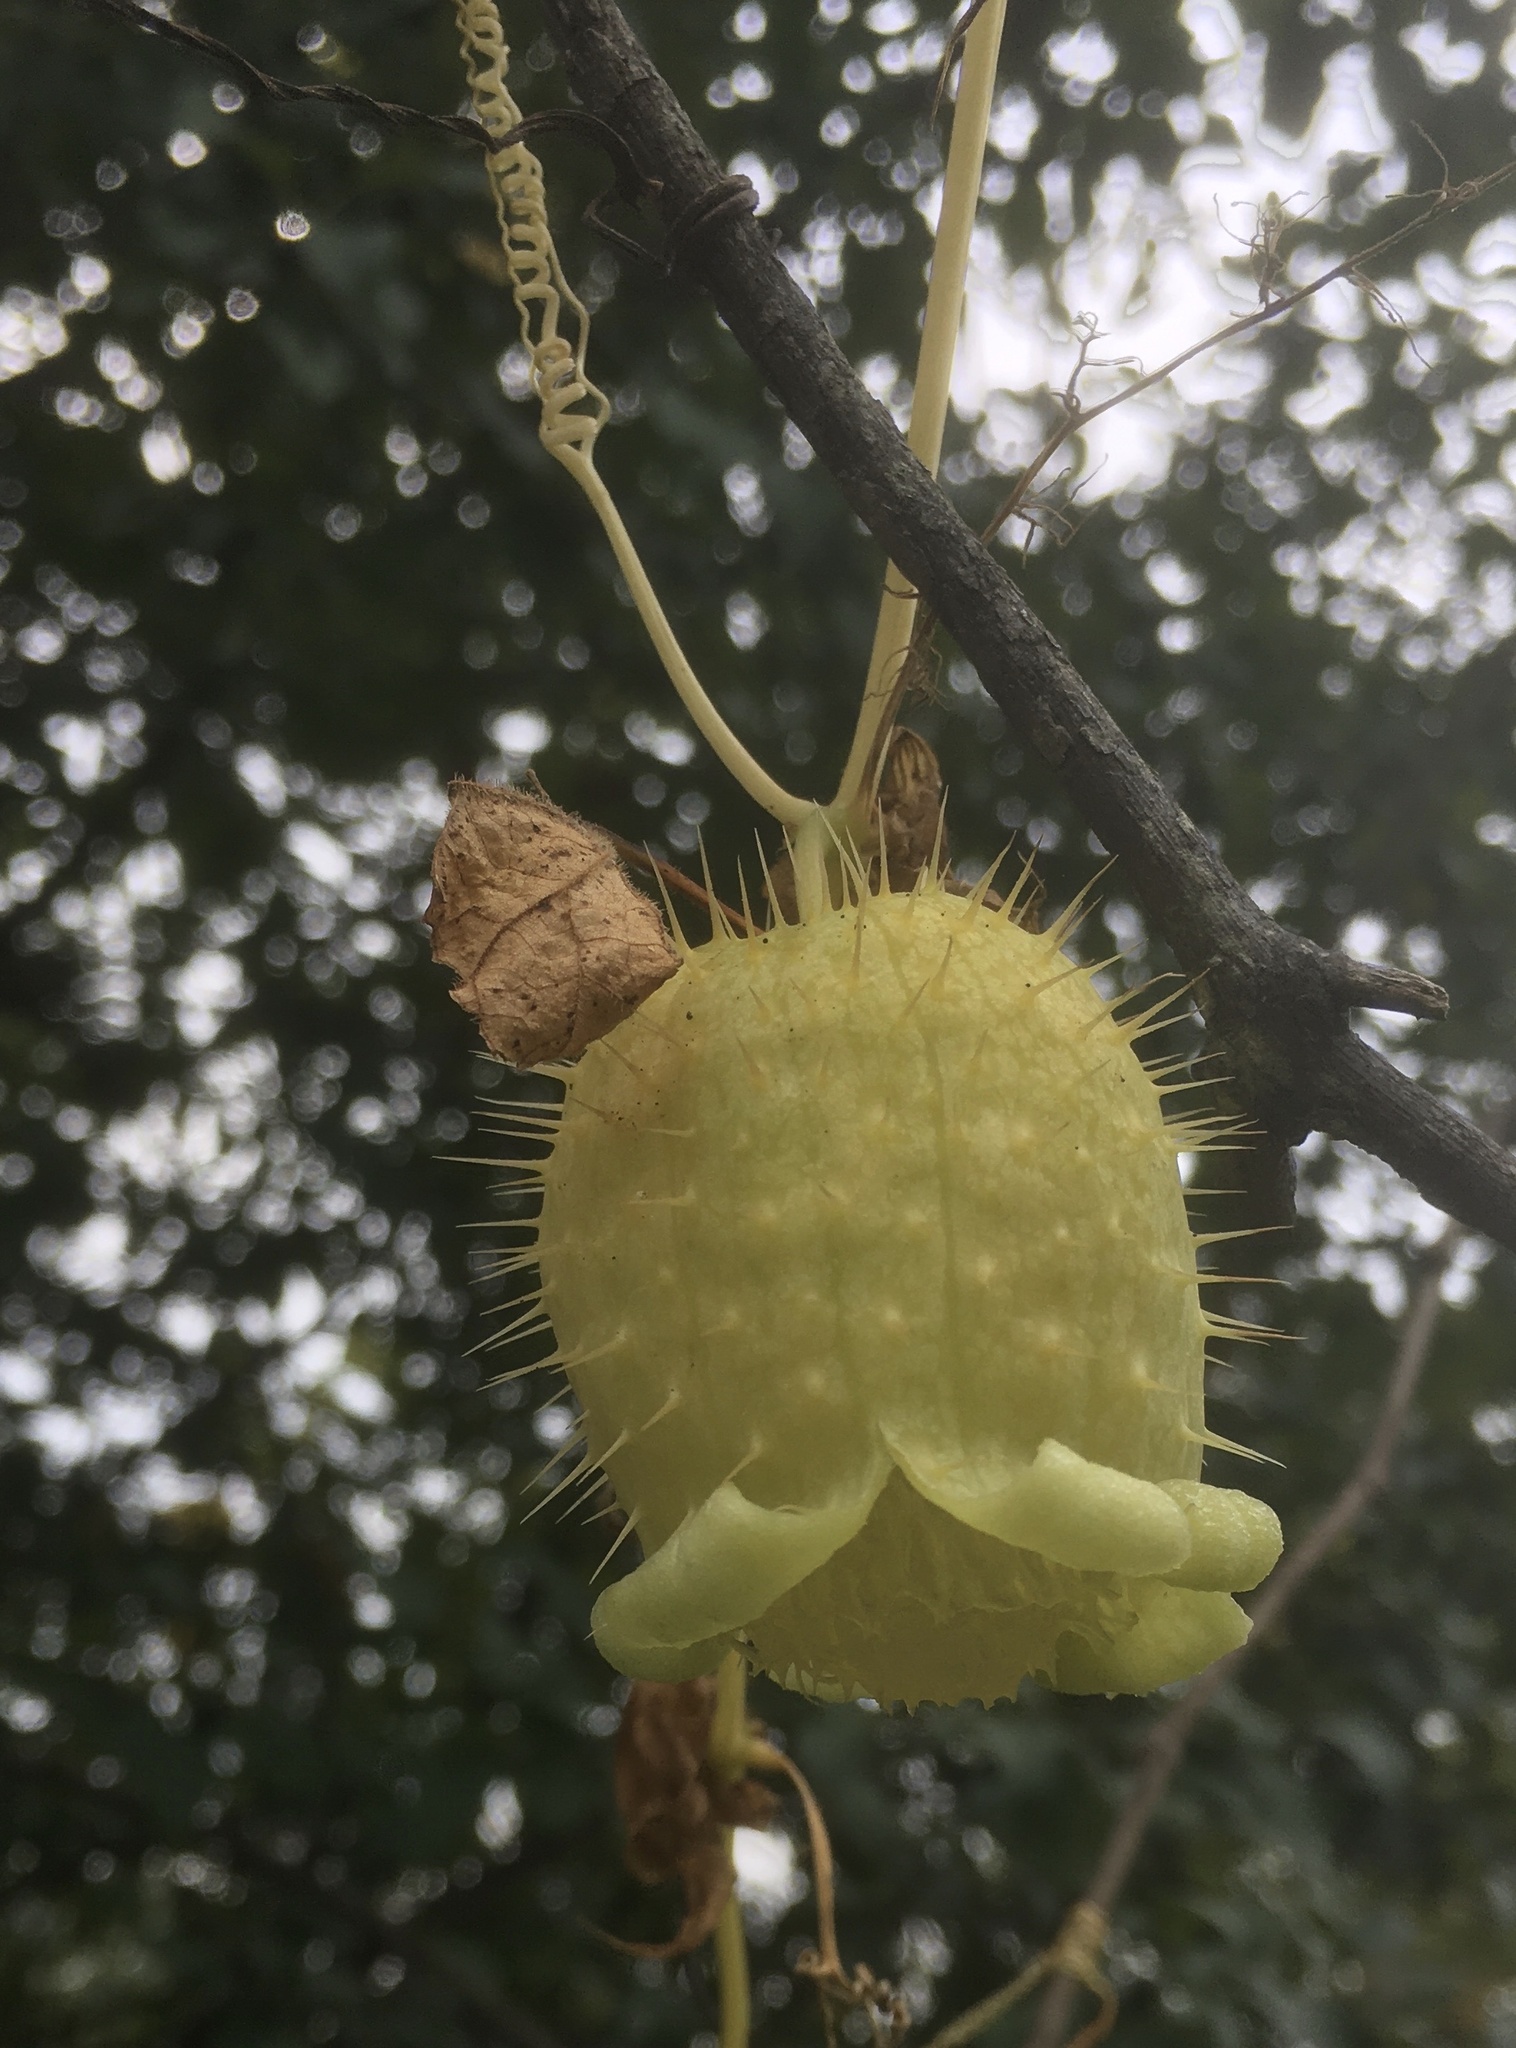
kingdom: Plantae
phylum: Tracheophyta
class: Magnoliopsida
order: Cucurbitales
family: Cucurbitaceae
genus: Echinocystis
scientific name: Echinocystis lobata
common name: Wild cucumber
